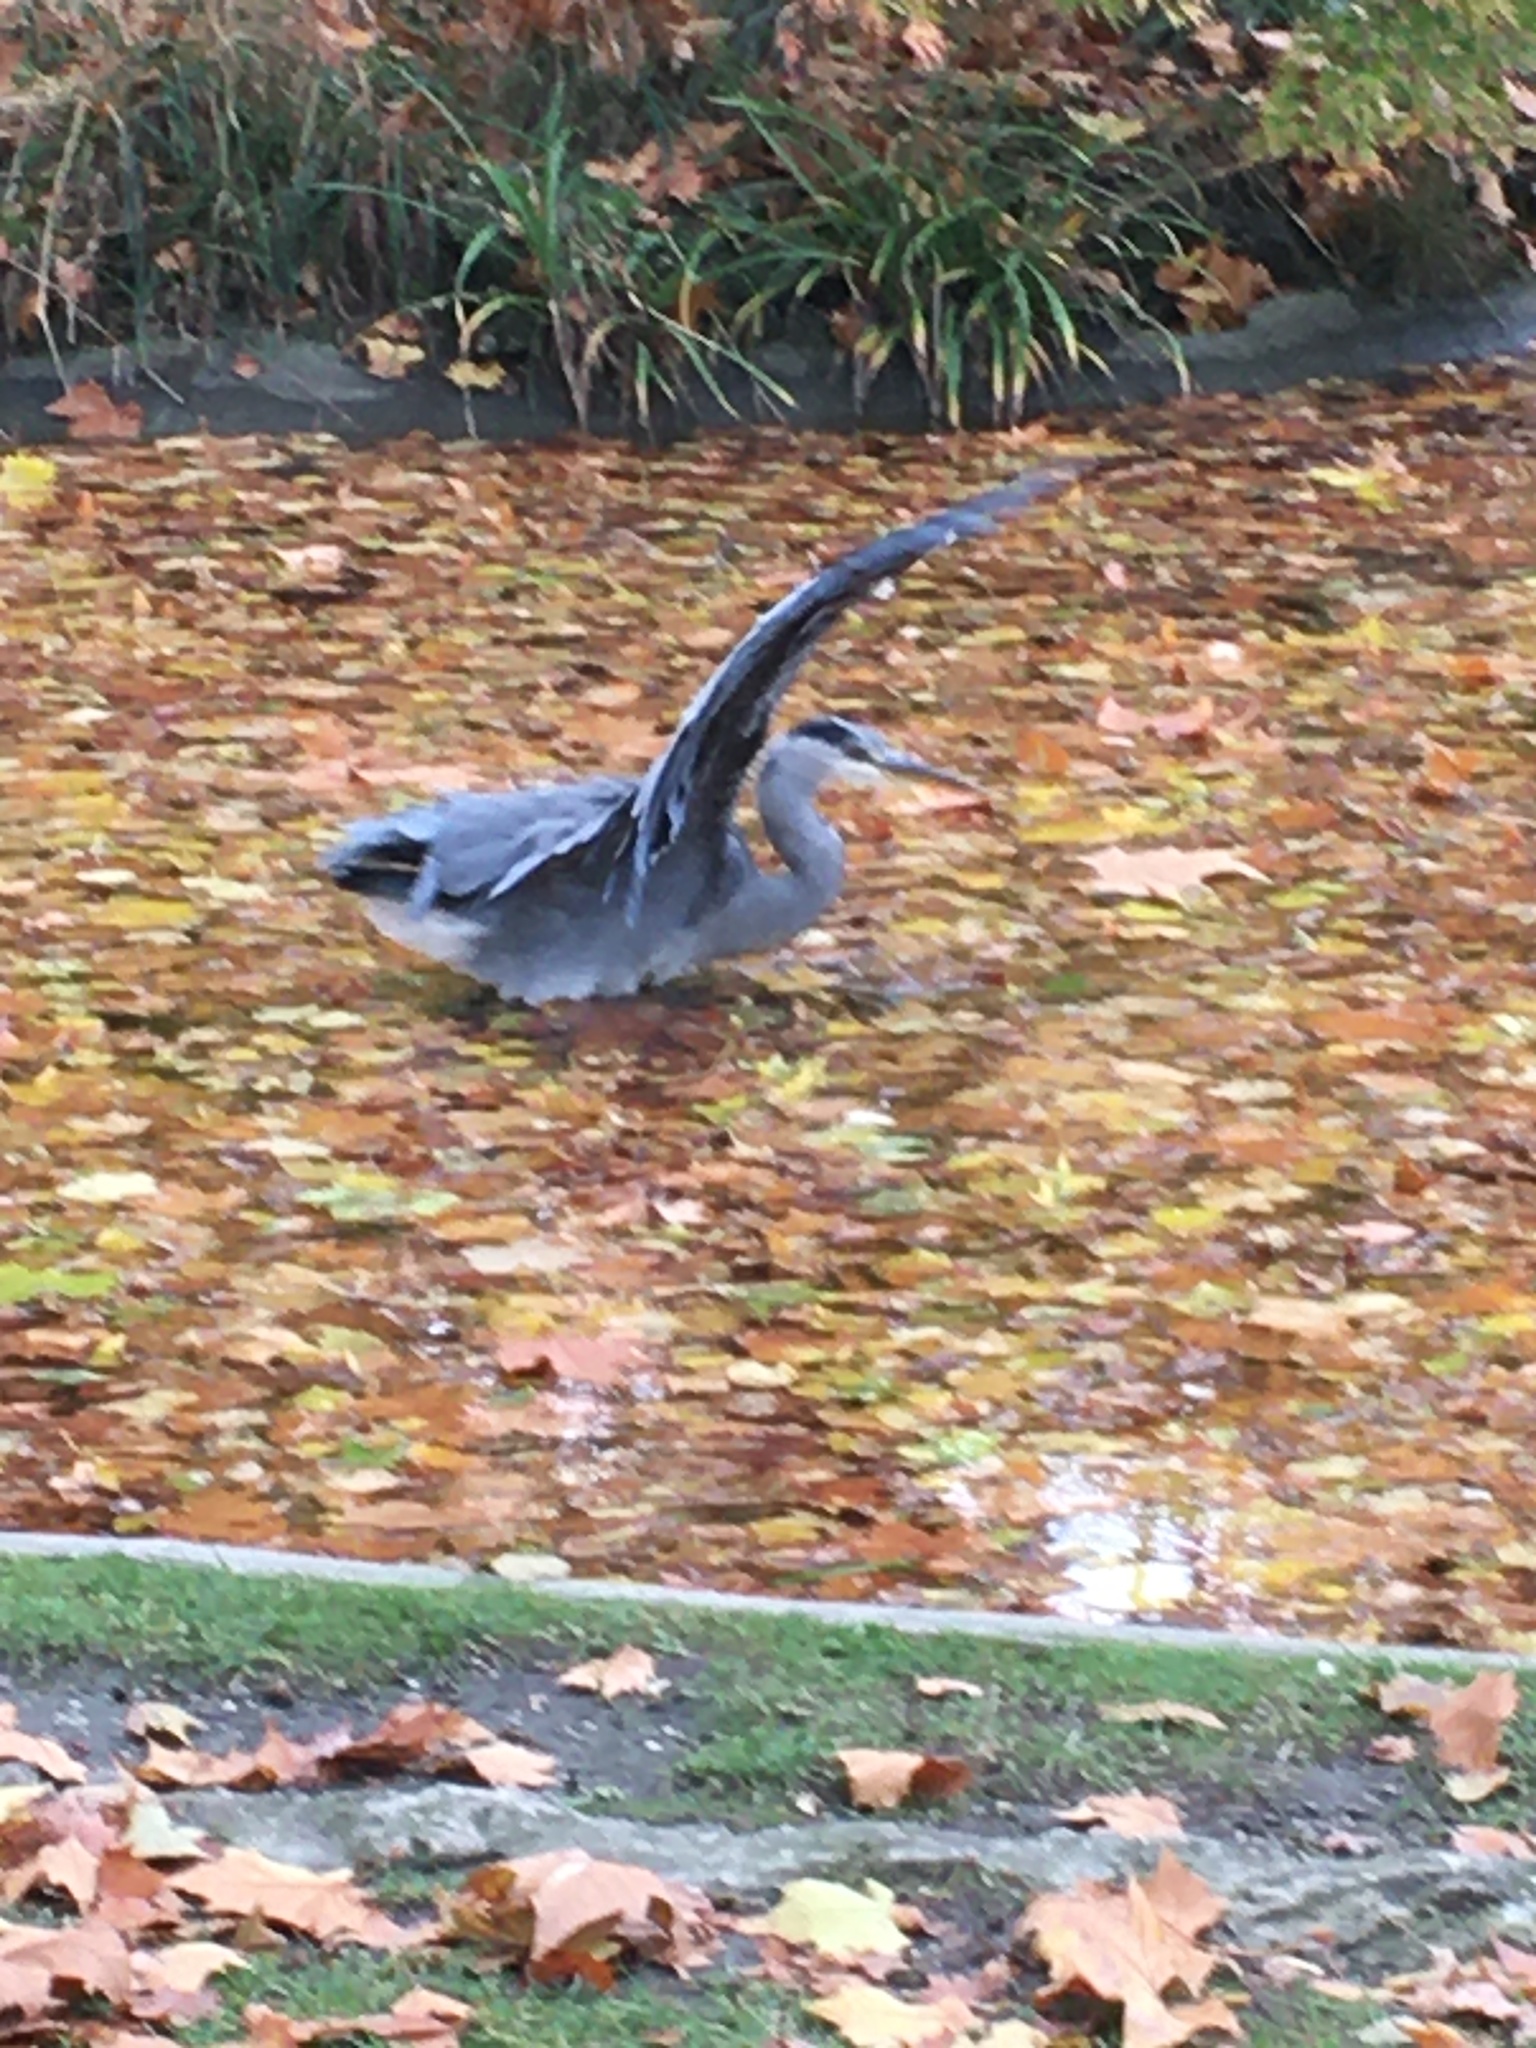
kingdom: Animalia
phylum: Chordata
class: Aves
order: Pelecaniformes
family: Ardeidae
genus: Ardea
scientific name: Ardea cinerea
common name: Grey heron
